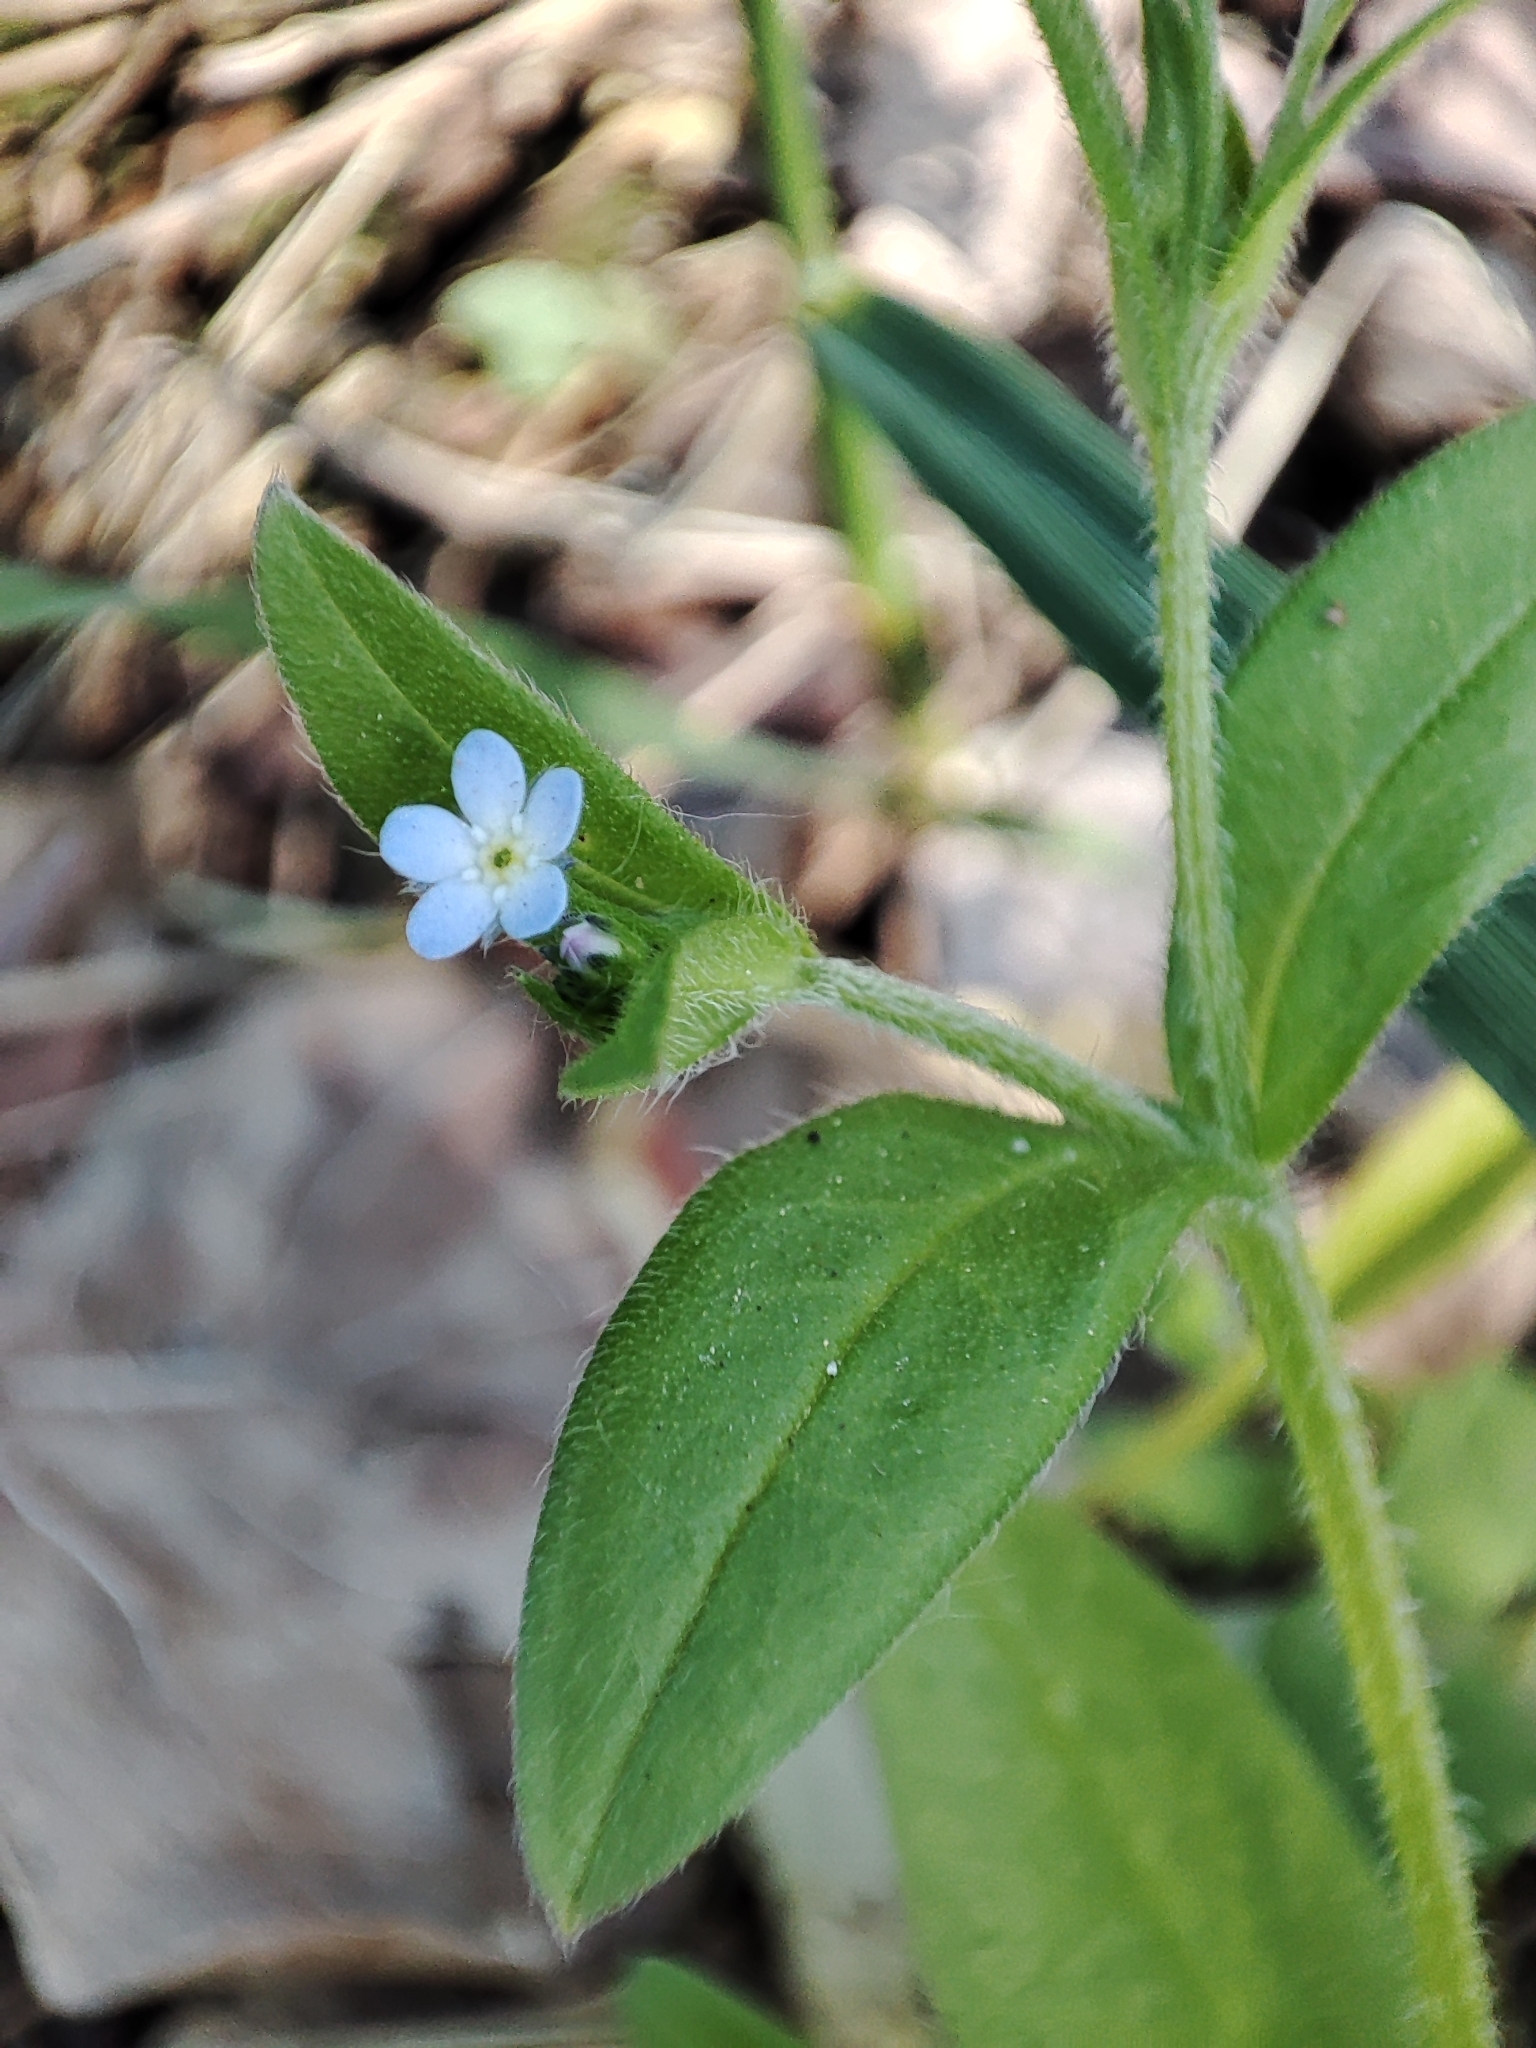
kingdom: Plantae
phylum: Tracheophyta
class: Magnoliopsida
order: Boraginales
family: Boraginaceae
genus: Myosotis
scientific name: Myosotis sparsiflora
